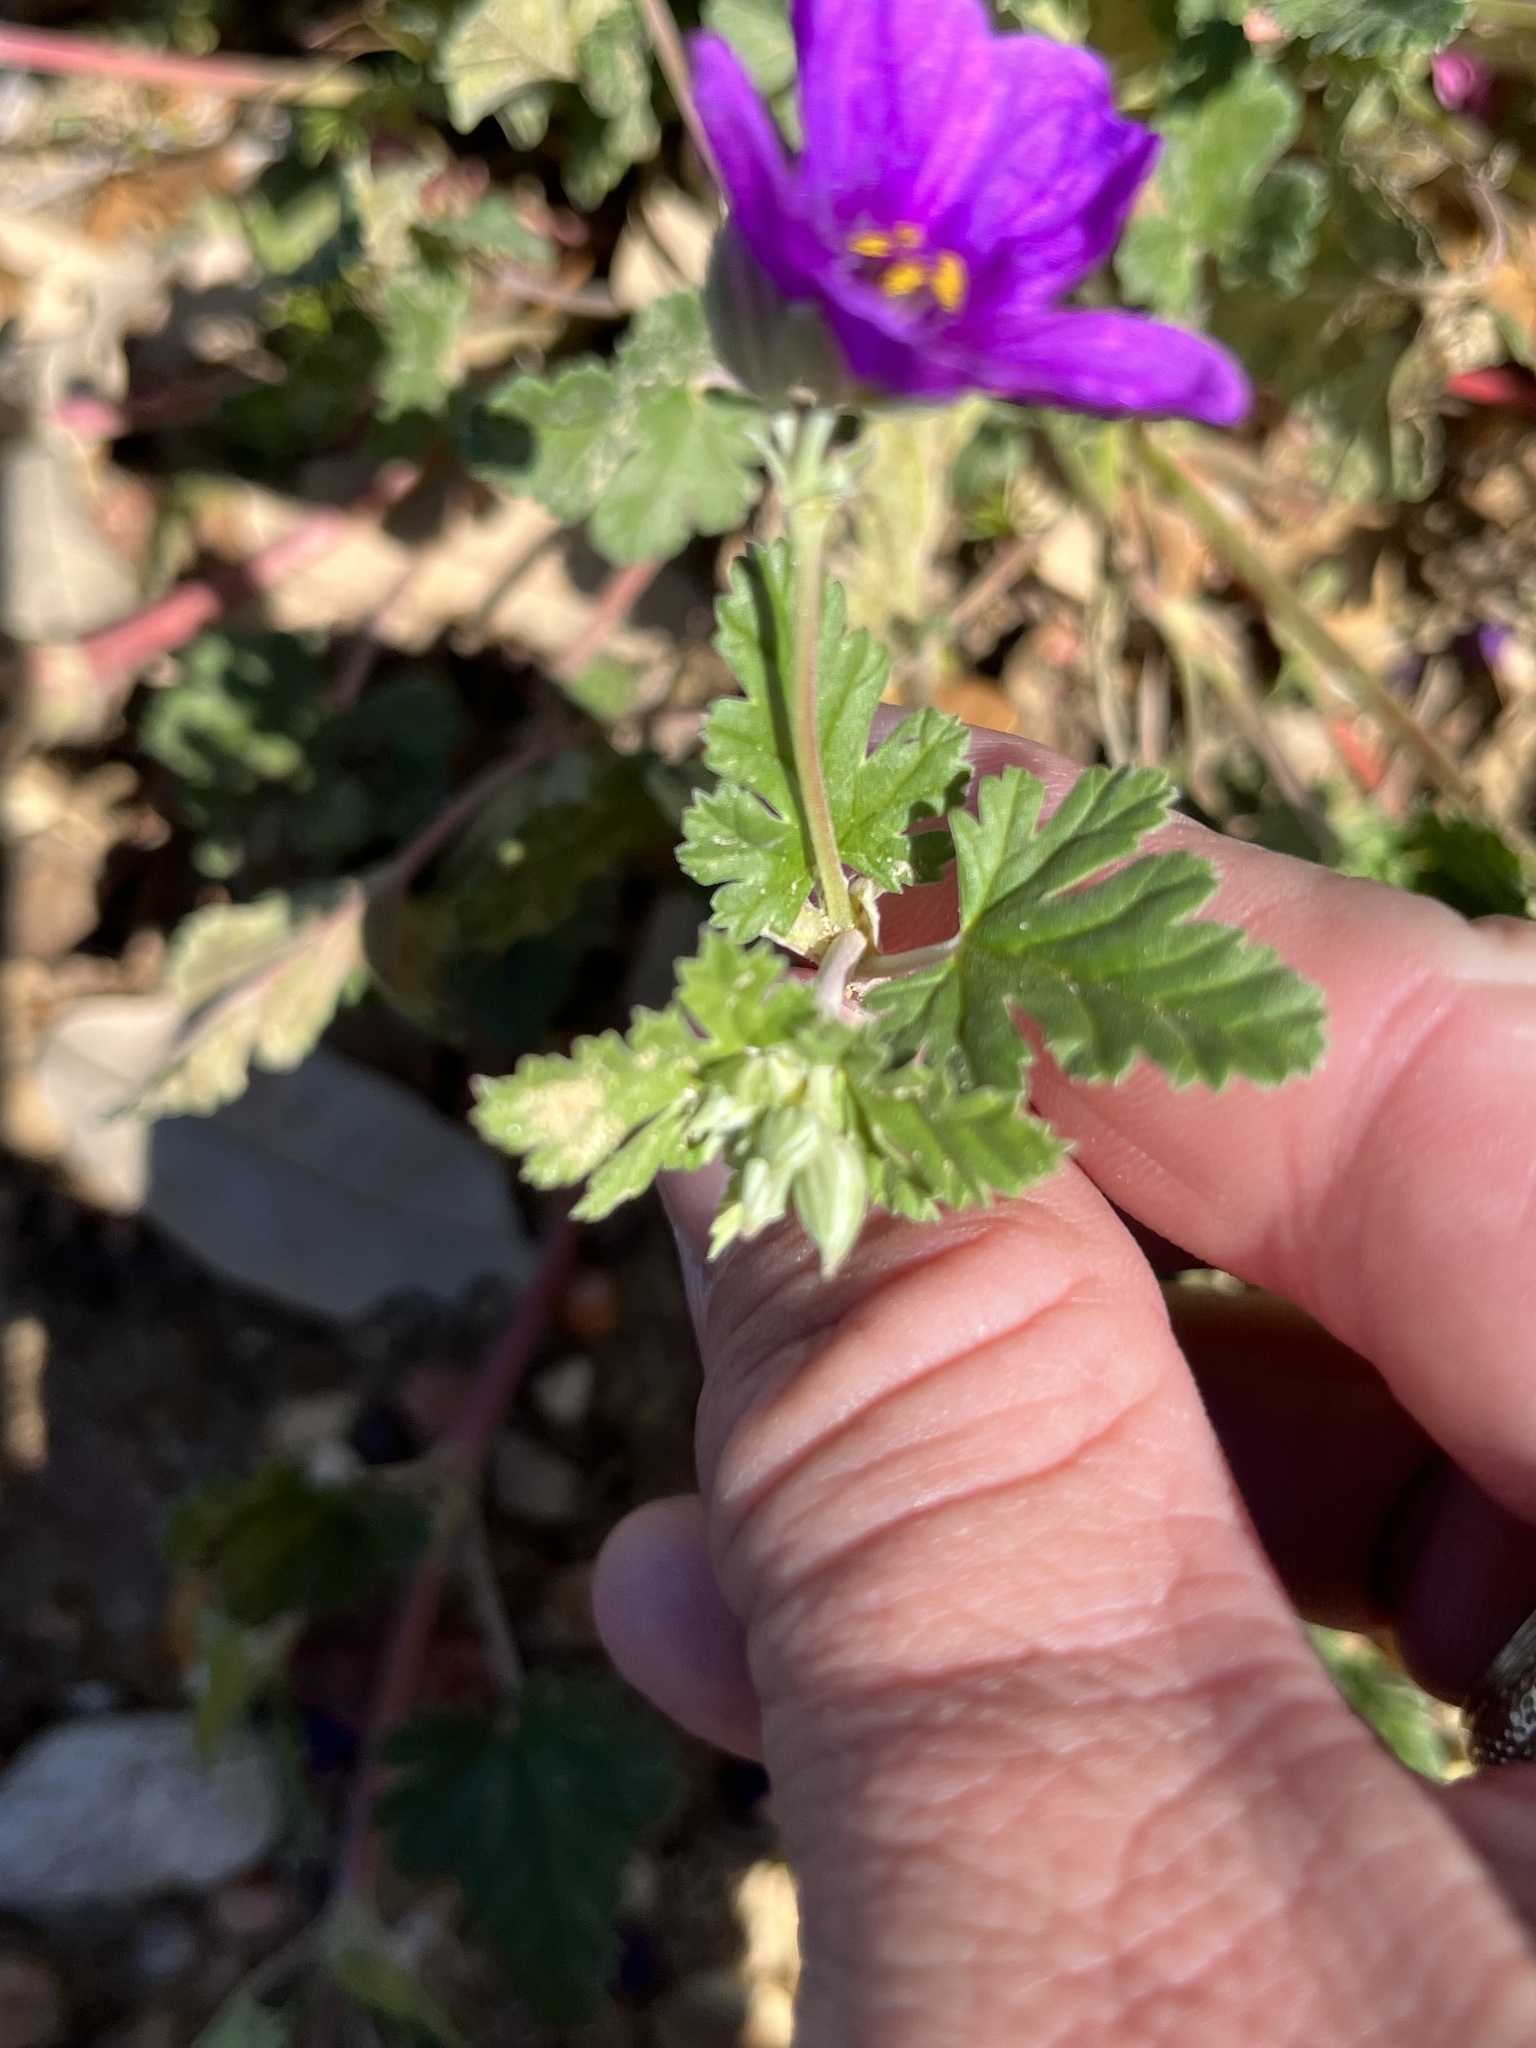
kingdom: Plantae
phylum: Tracheophyta
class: Magnoliopsida
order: Geraniales
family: Geraniaceae
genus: Erodium
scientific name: Erodium texanum
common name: Texas stork's-bill
